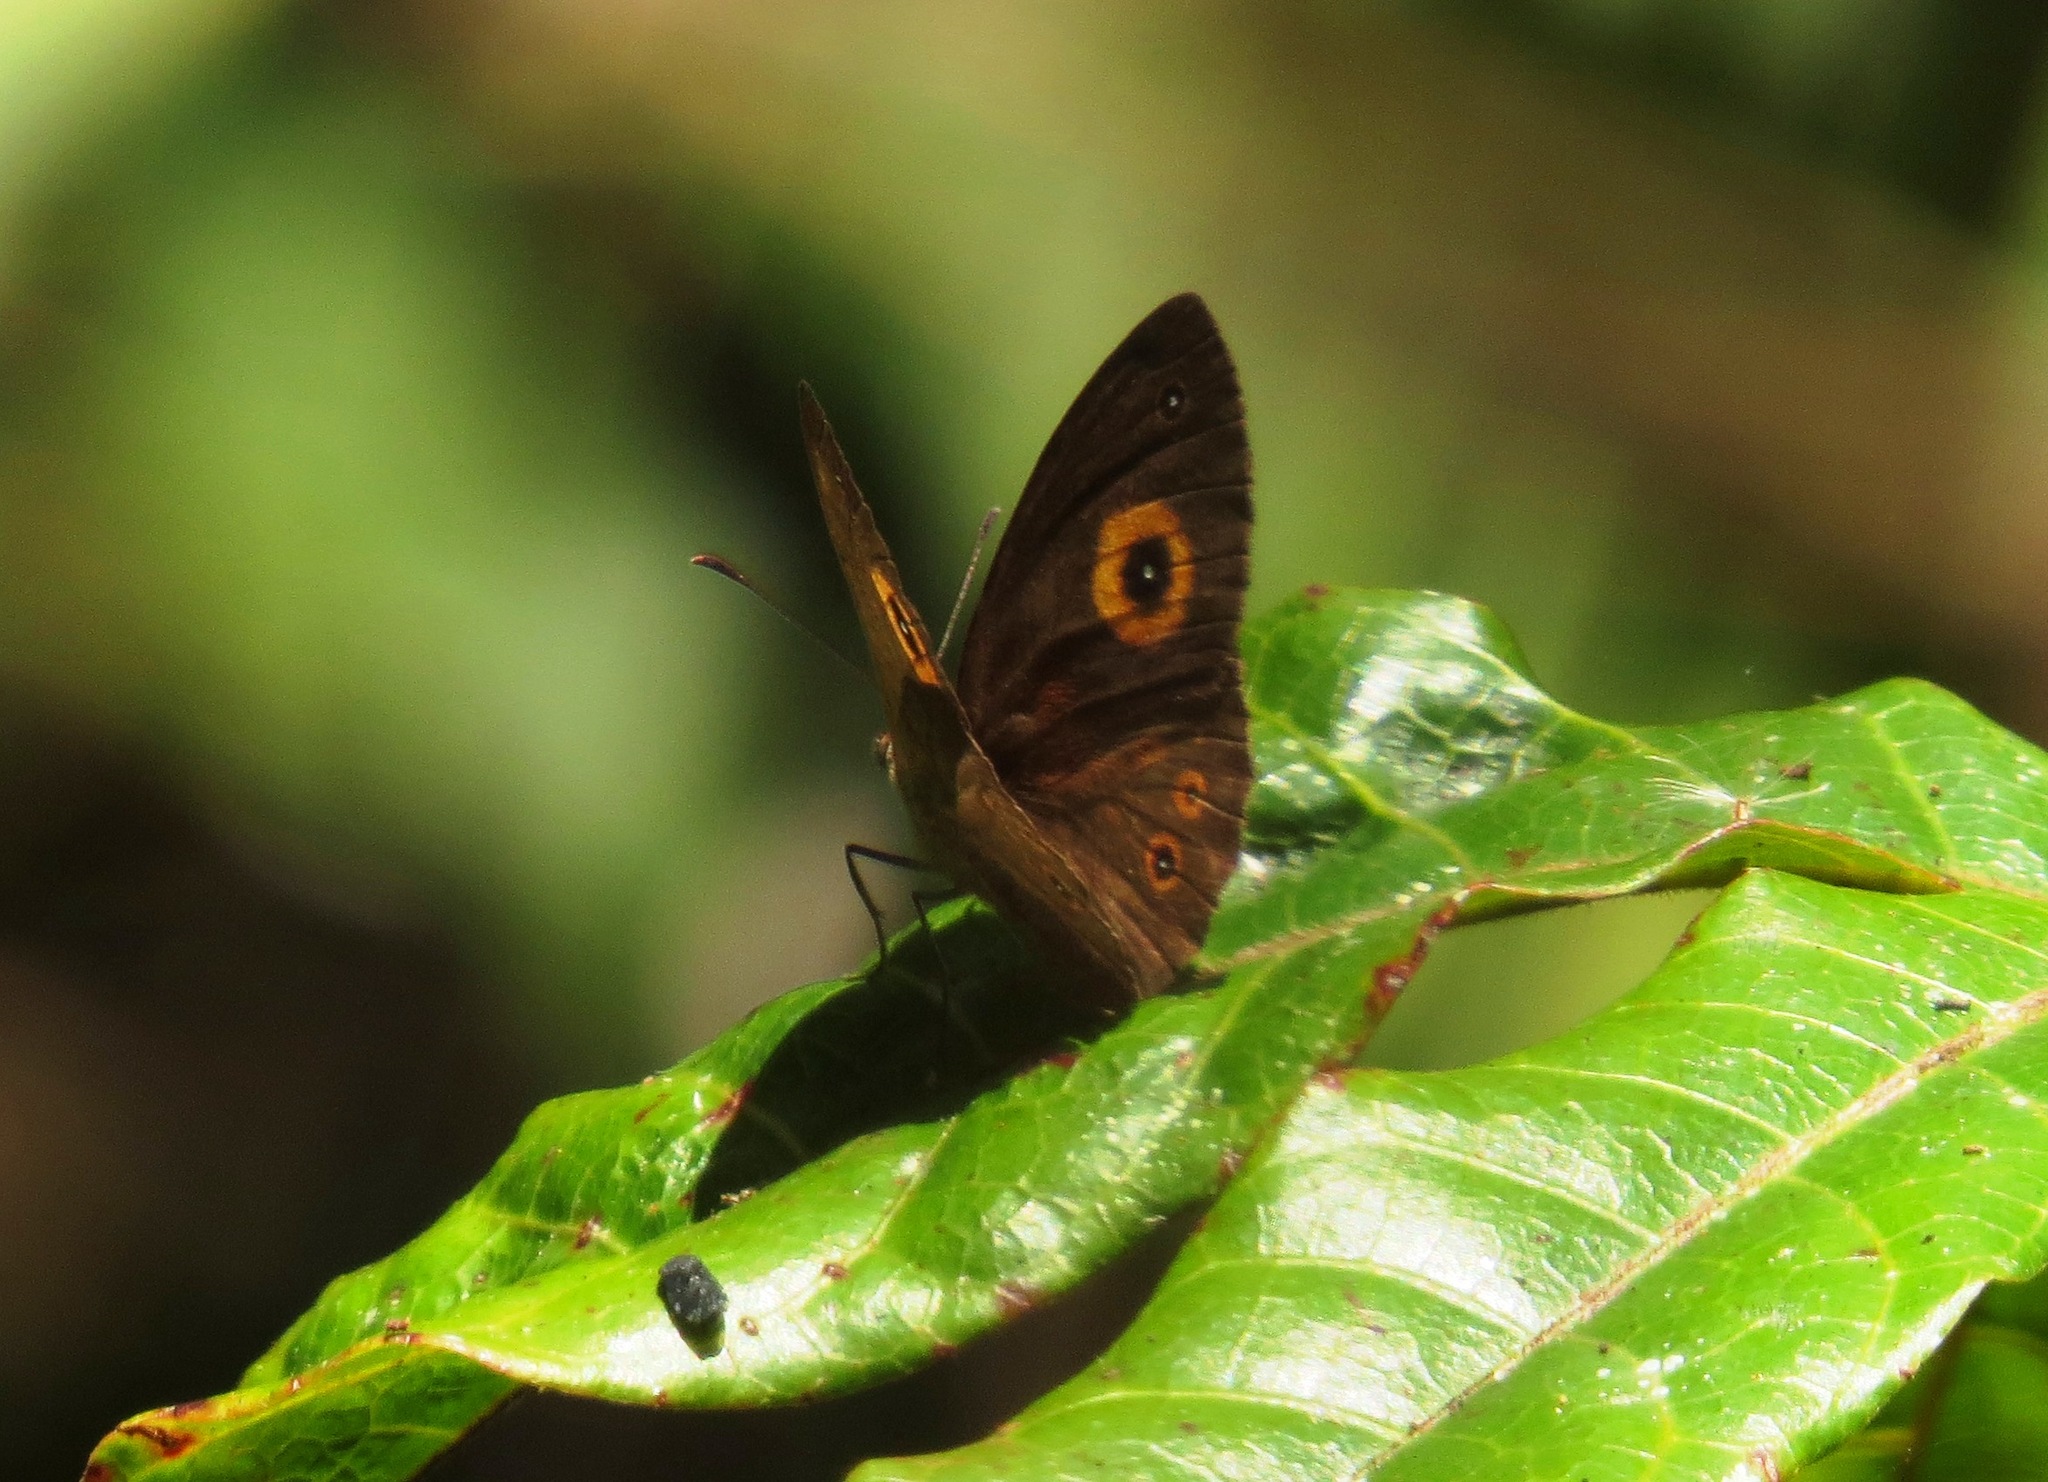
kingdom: Animalia
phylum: Arthropoda
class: Insecta
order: Lepidoptera
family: Nymphalidae
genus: Heteropsis
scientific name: Heteropsis turbata
